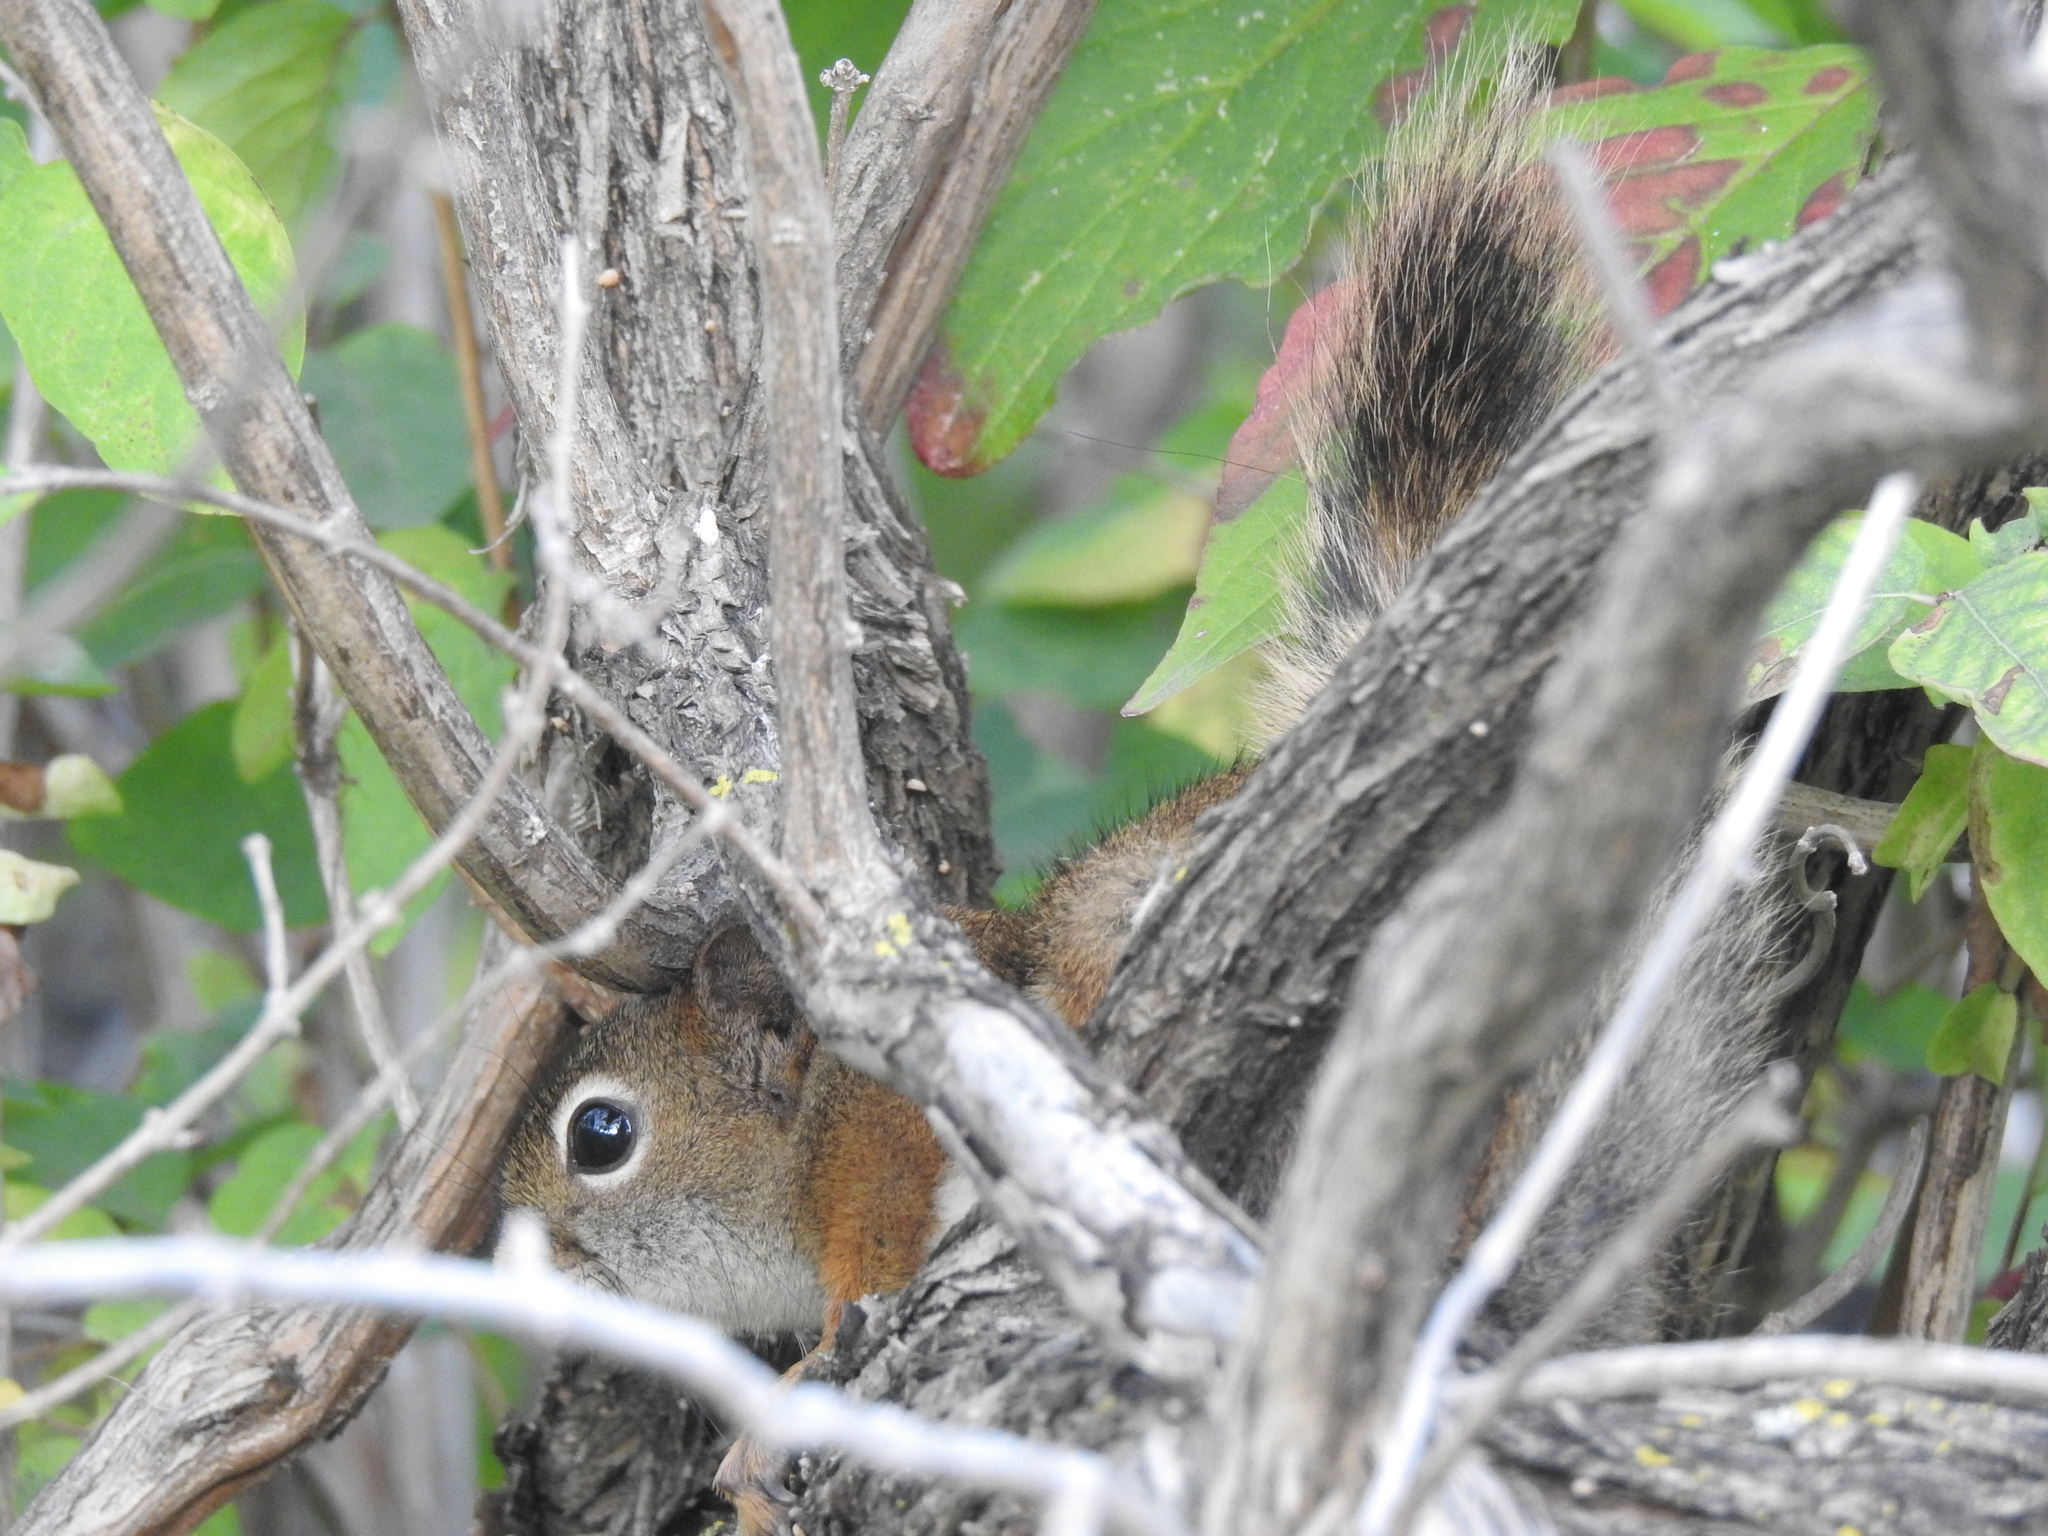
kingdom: Animalia
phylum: Chordata
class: Mammalia
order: Rodentia
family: Sciuridae
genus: Tamiasciurus
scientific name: Tamiasciurus hudsonicus
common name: Red squirrel
